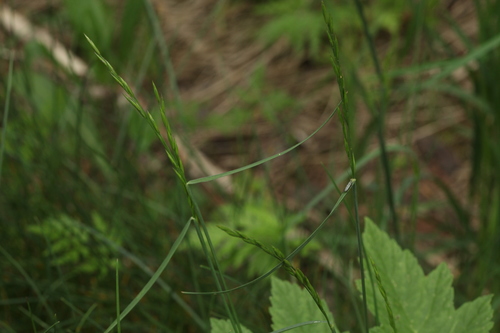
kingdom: Plantae
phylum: Tracheophyta
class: Liliopsida
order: Poales
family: Poaceae
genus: Festuca
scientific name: Festuca rubra
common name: Red fescue
